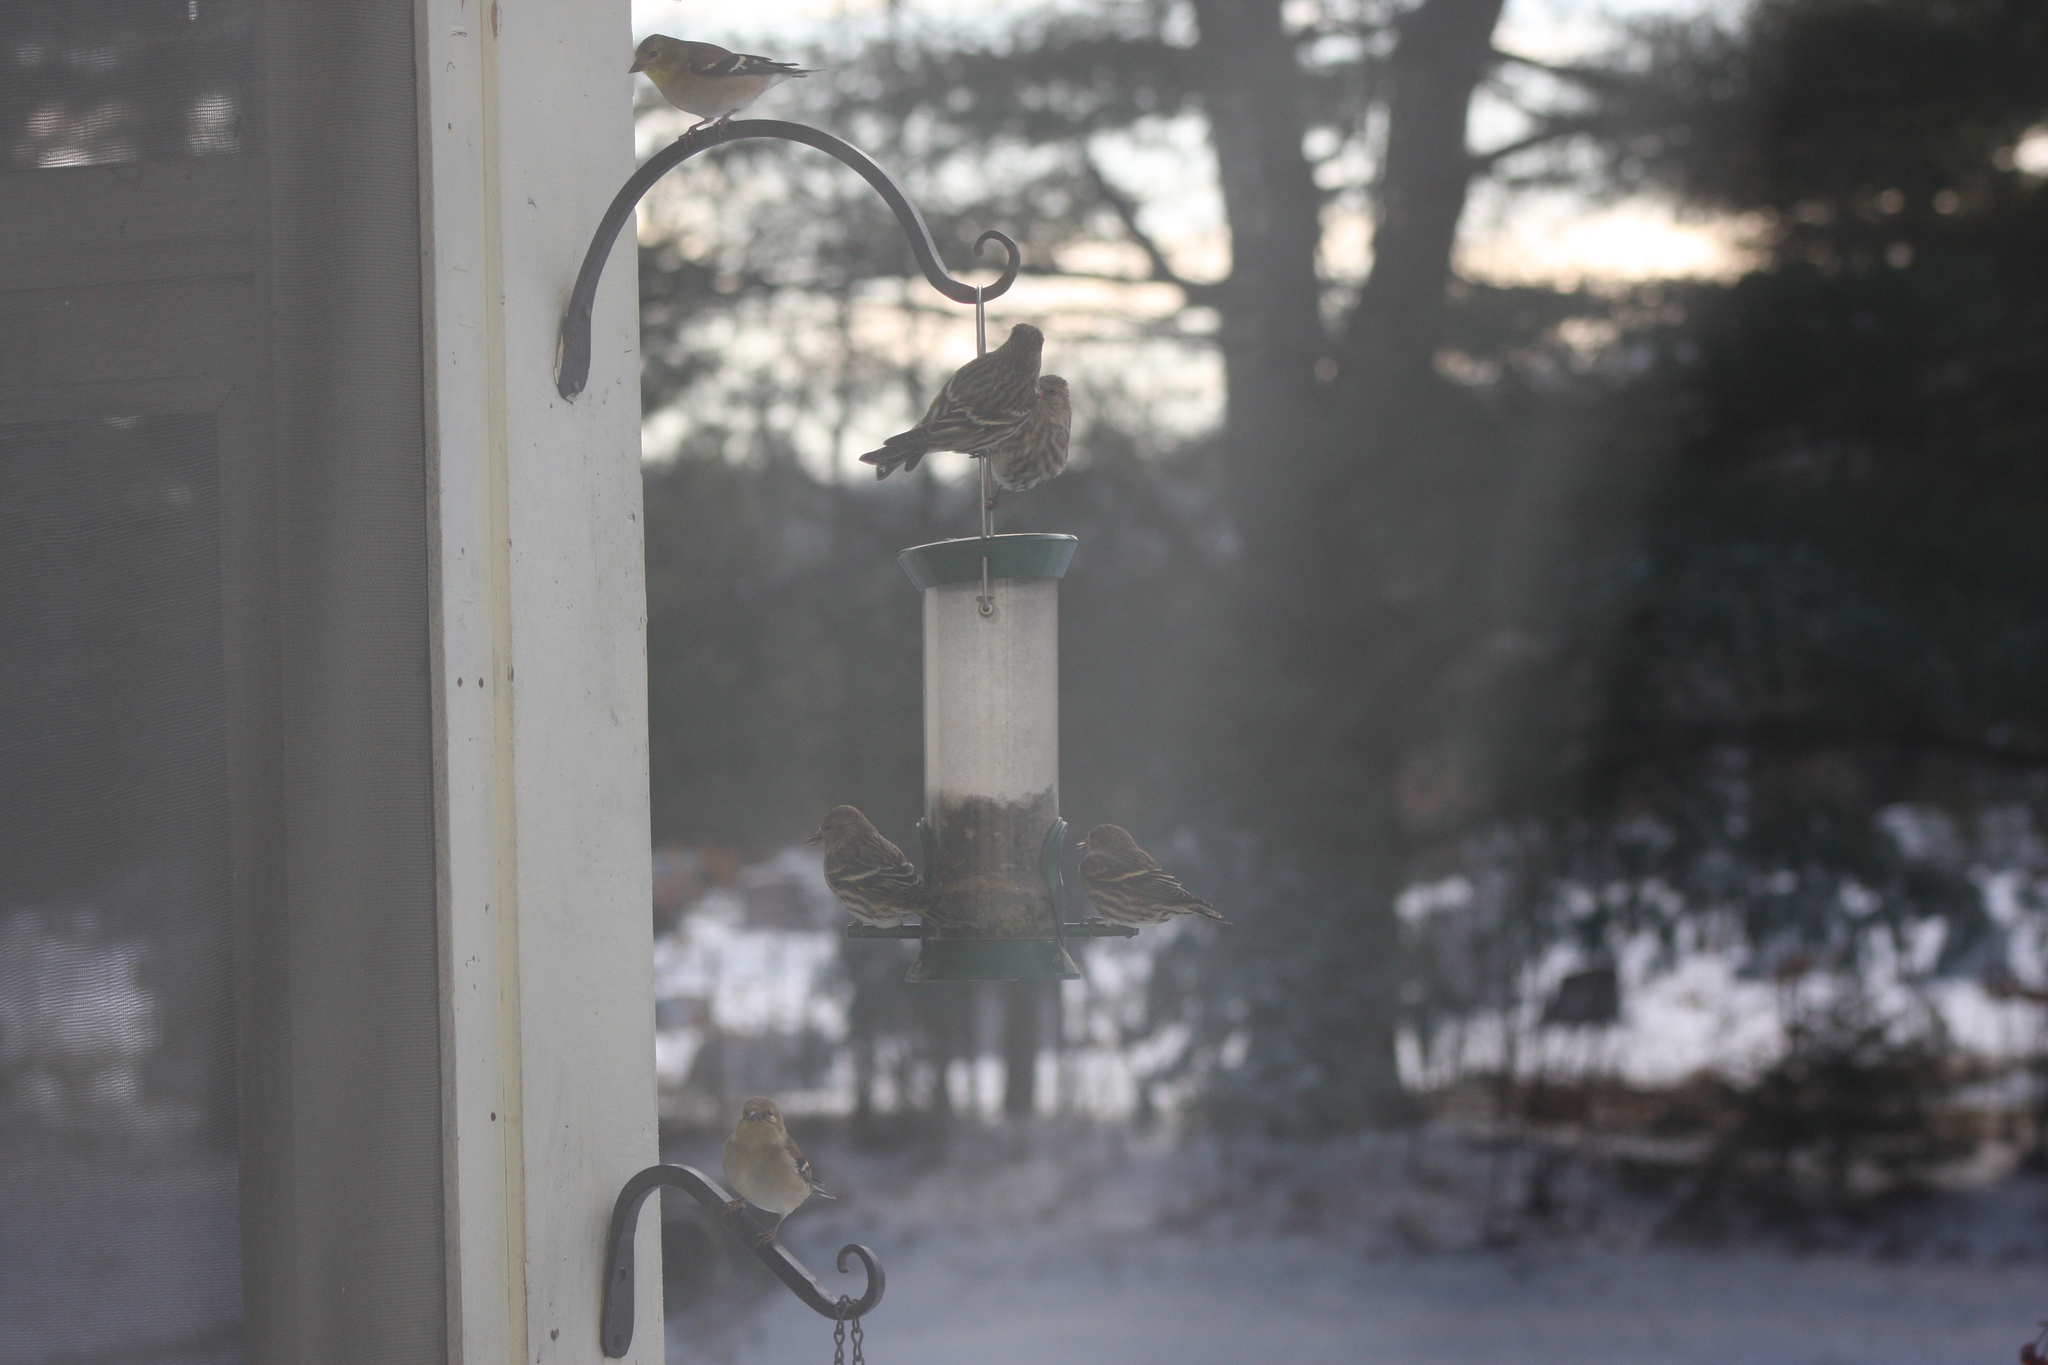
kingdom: Animalia
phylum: Chordata
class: Aves
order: Passeriformes
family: Fringillidae
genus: Spinus
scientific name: Spinus pinus
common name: Pine siskin
